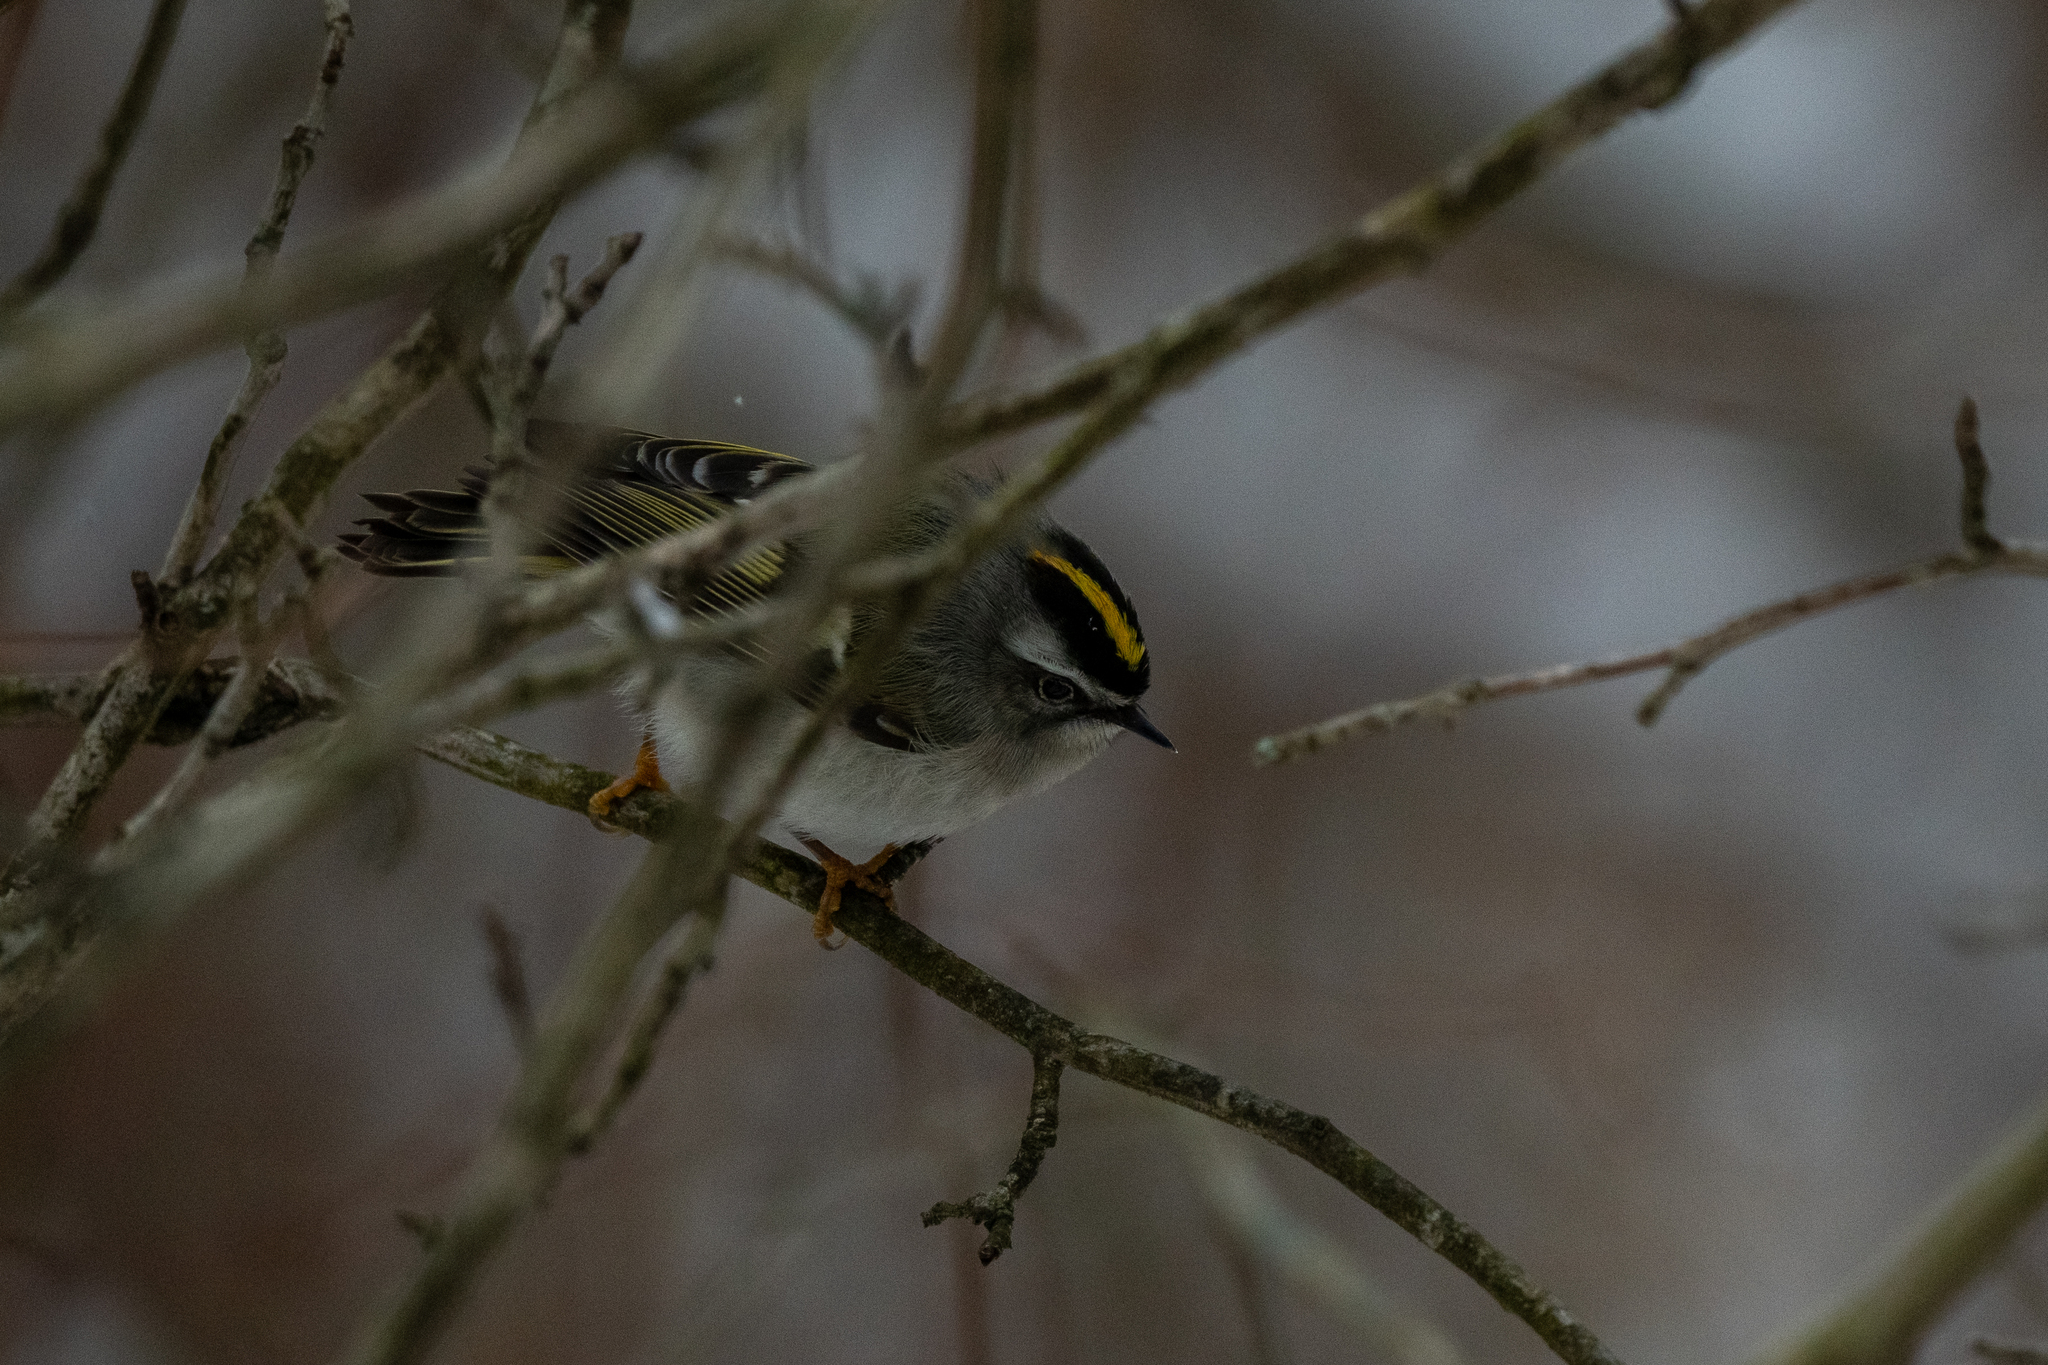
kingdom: Animalia
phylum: Chordata
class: Aves
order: Passeriformes
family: Regulidae
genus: Regulus
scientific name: Regulus satrapa
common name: Golden-crowned kinglet
